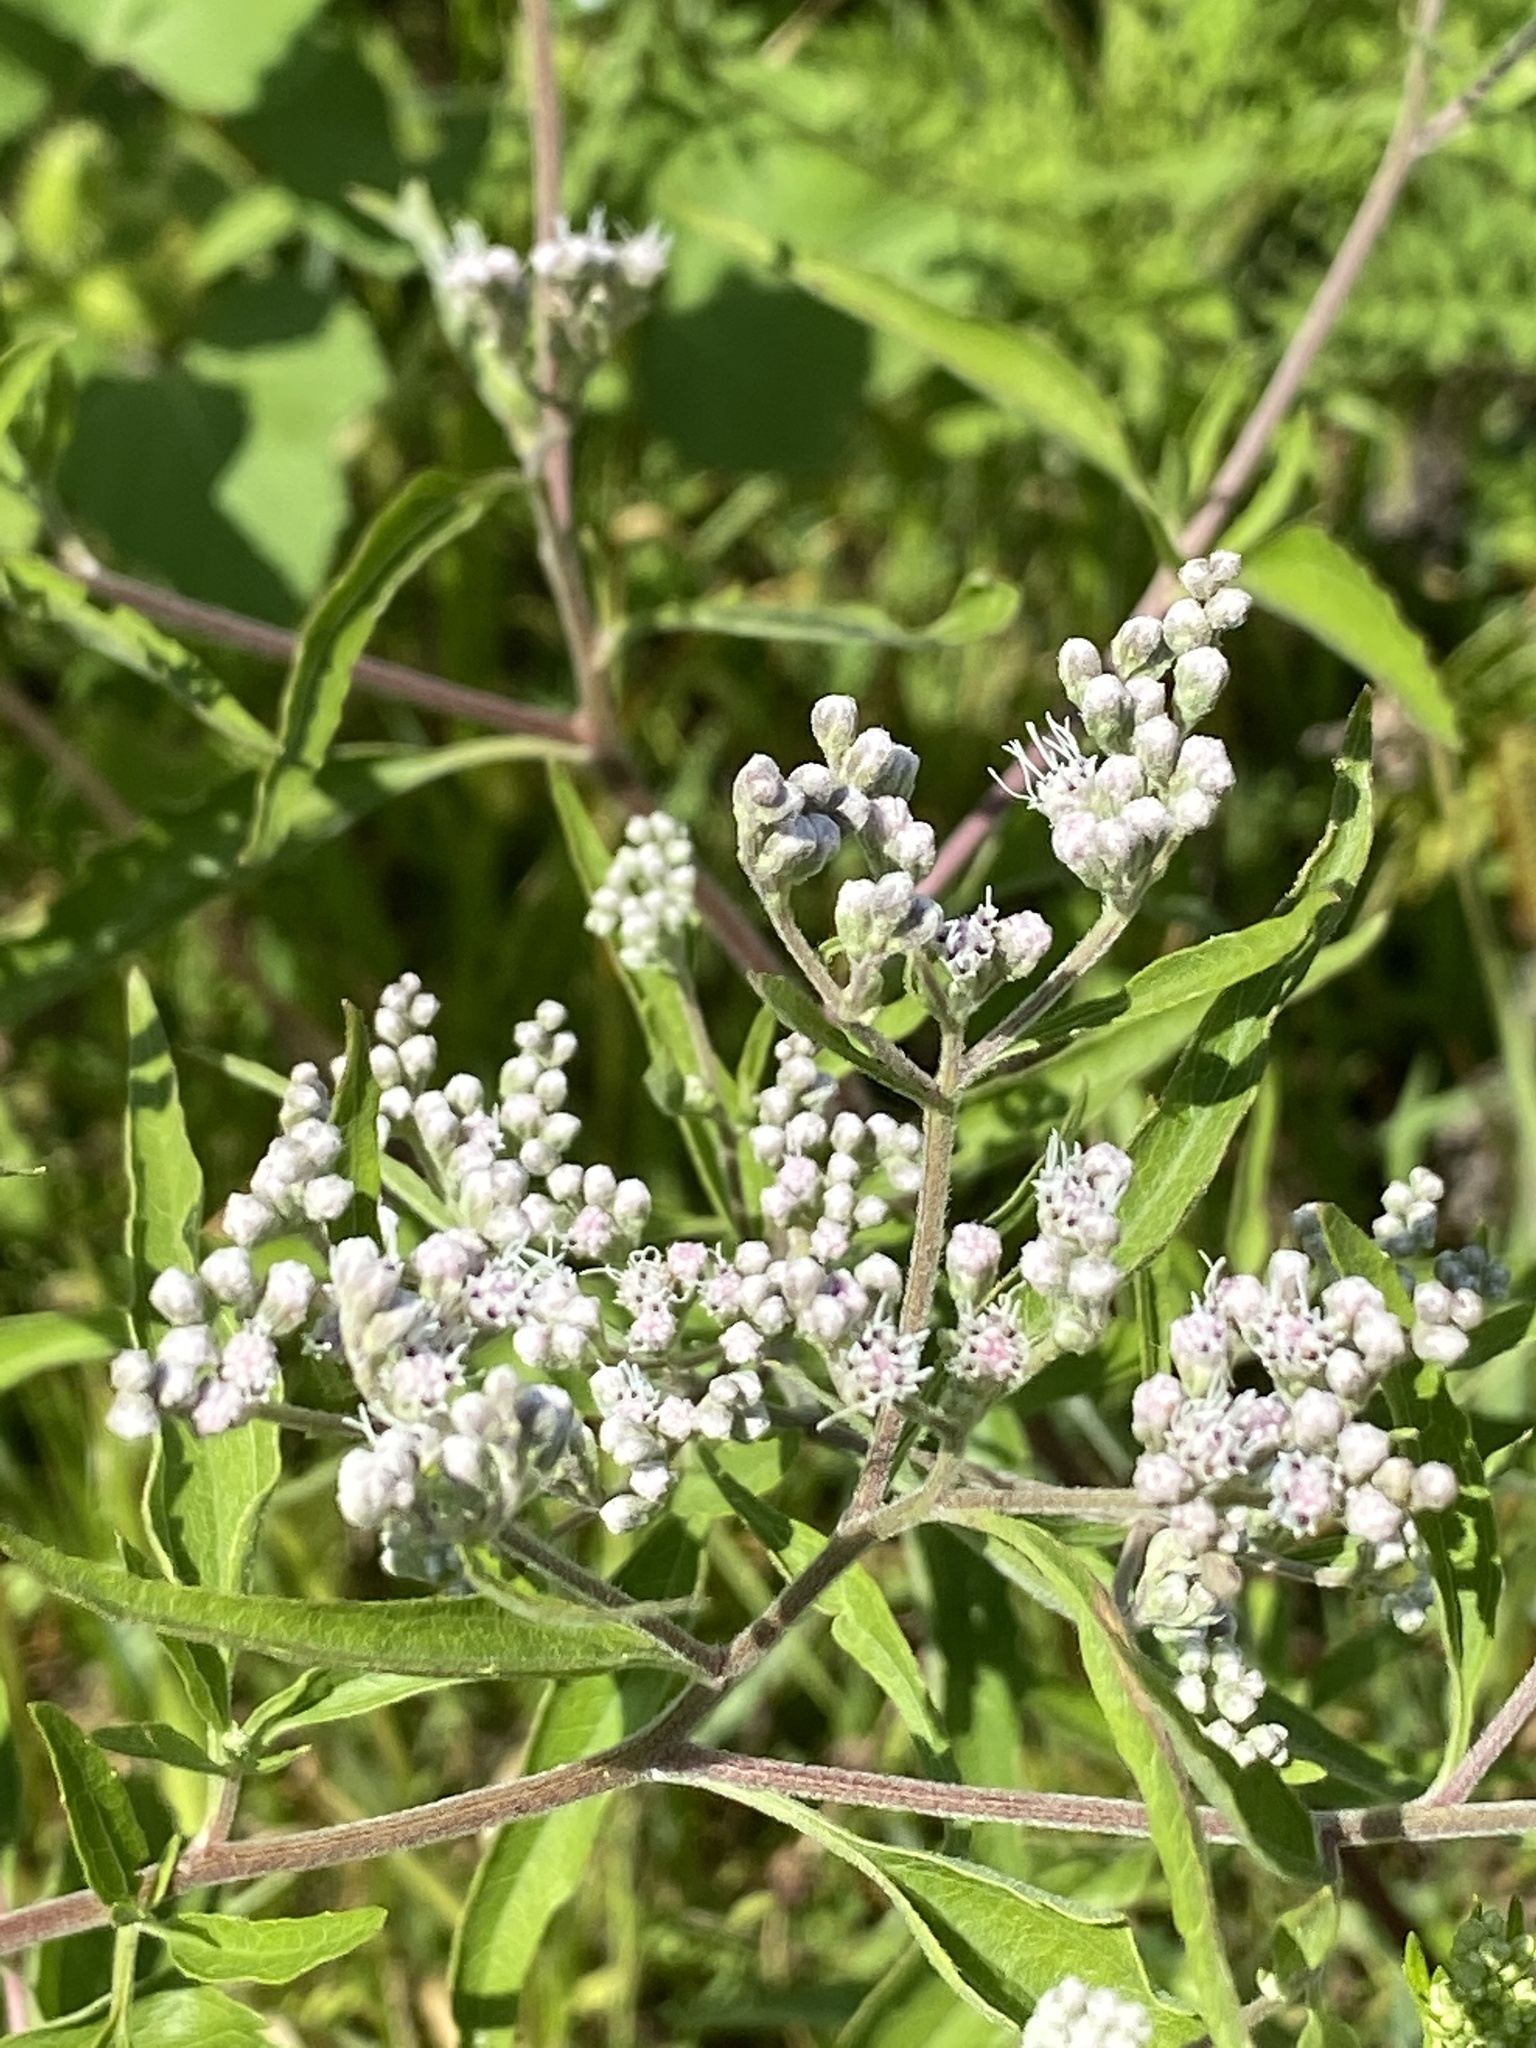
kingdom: Plantae
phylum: Tracheophyta
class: Magnoliopsida
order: Asterales
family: Asteraceae
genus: Eupatorium
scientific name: Eupatorium serotinum
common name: Late boneset
